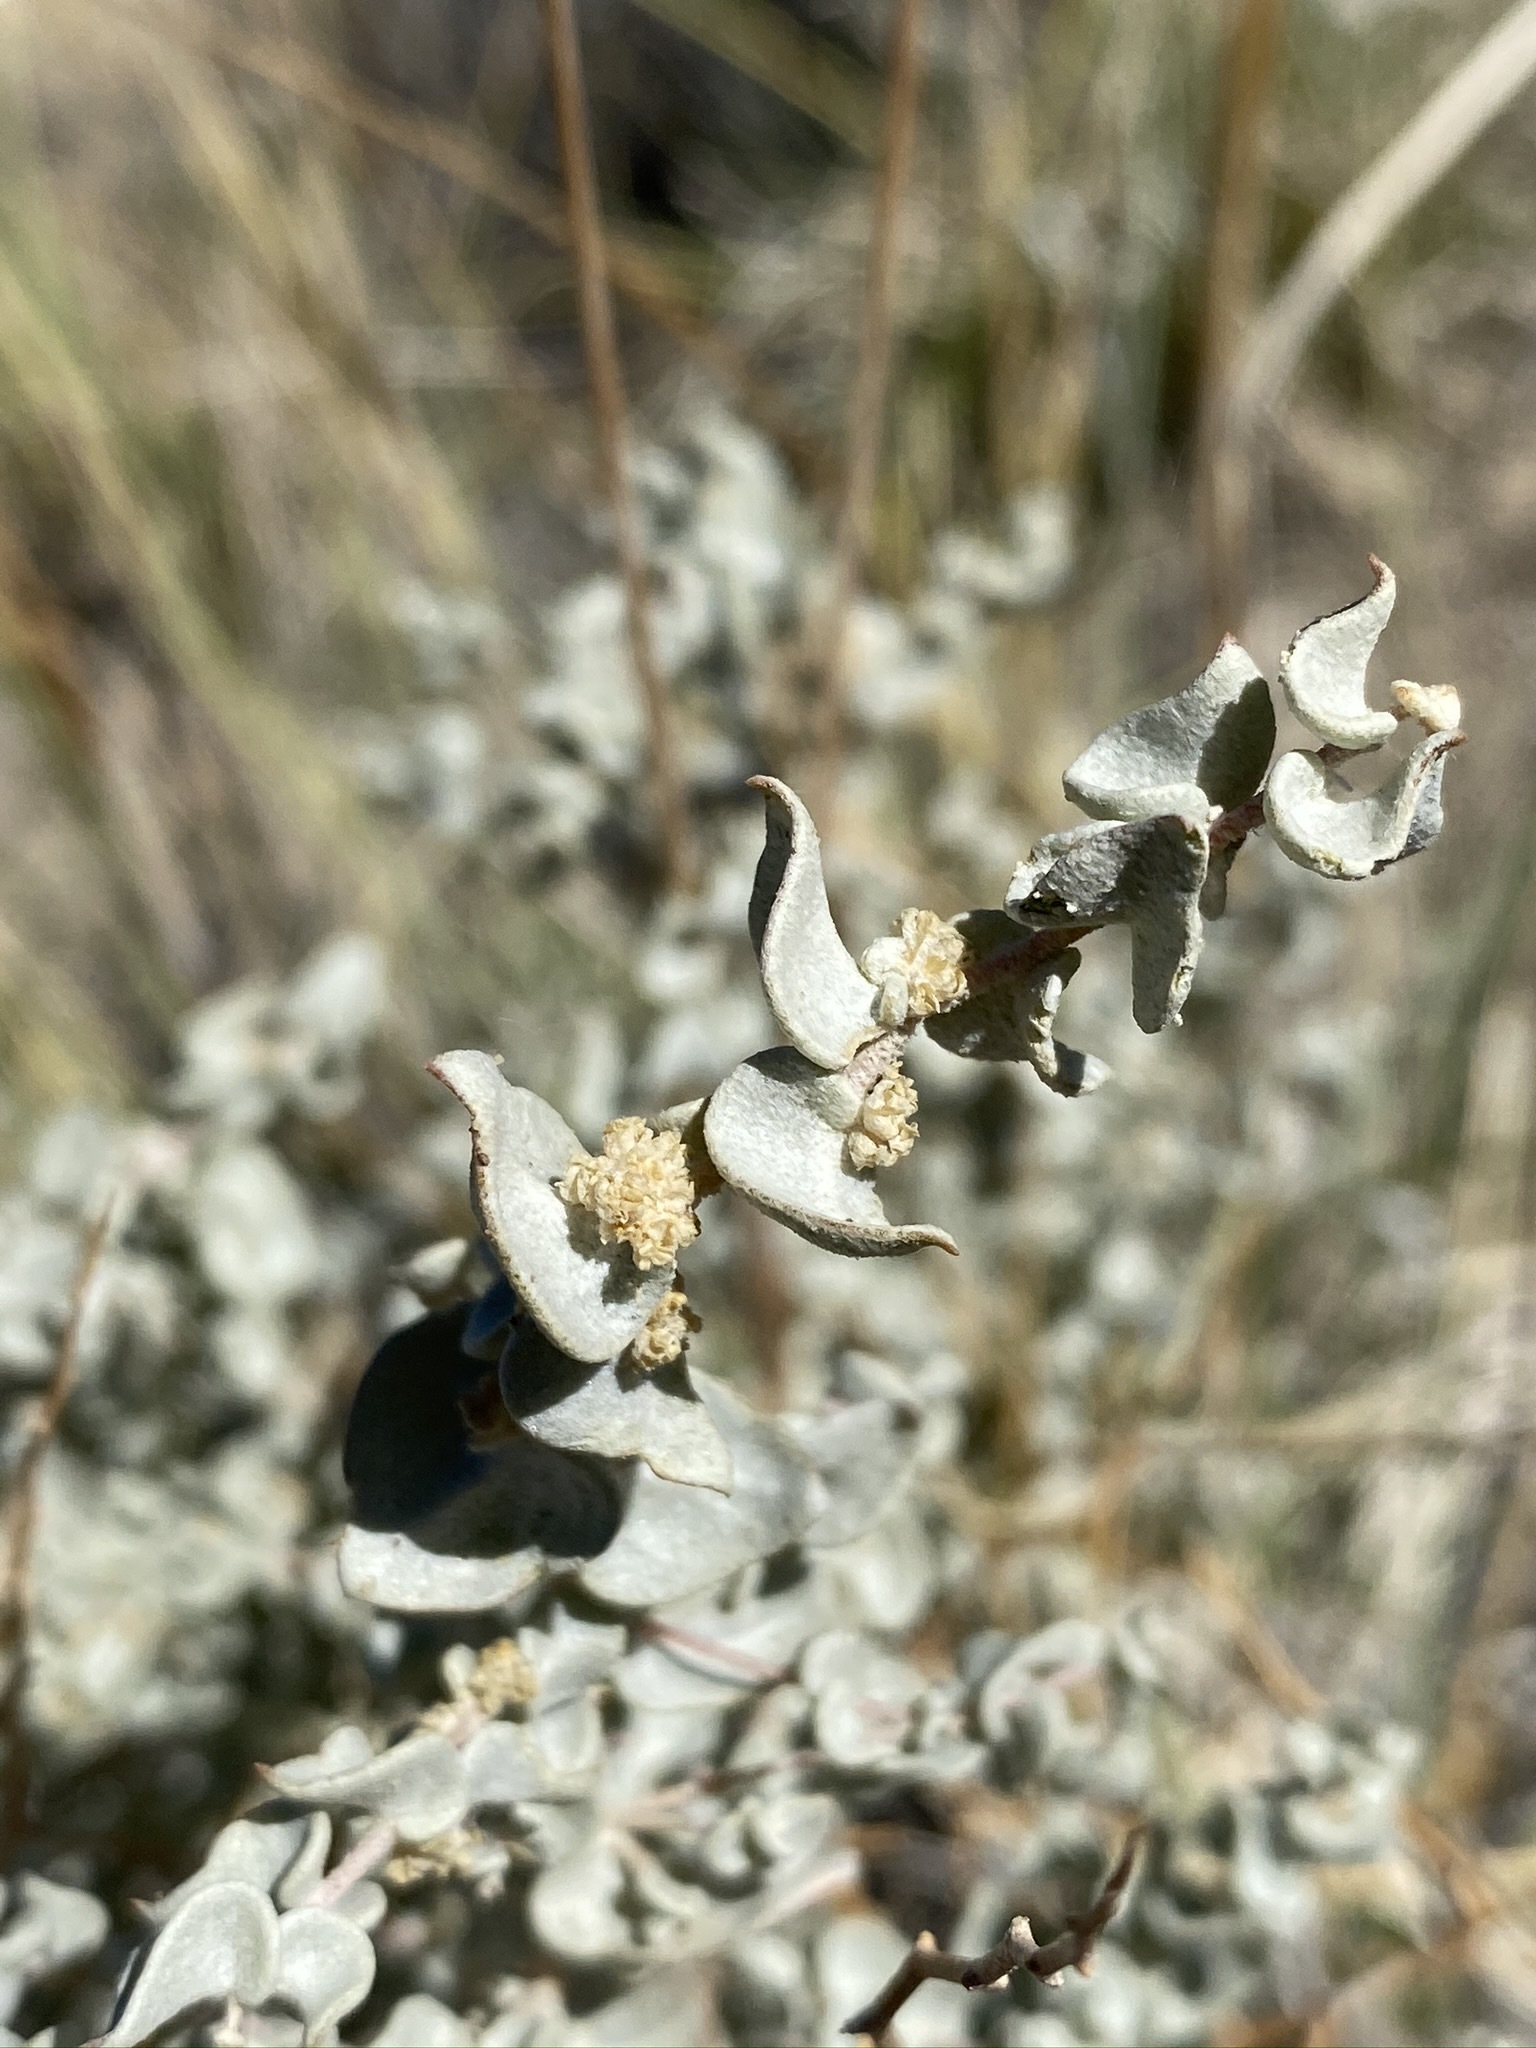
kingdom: Plantae
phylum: Tracheophyta
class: Magnoliopsida
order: Caryophyllales
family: Amaranthaceae
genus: Atriplex
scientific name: Atriplex parryi
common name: Parry's saltbush
